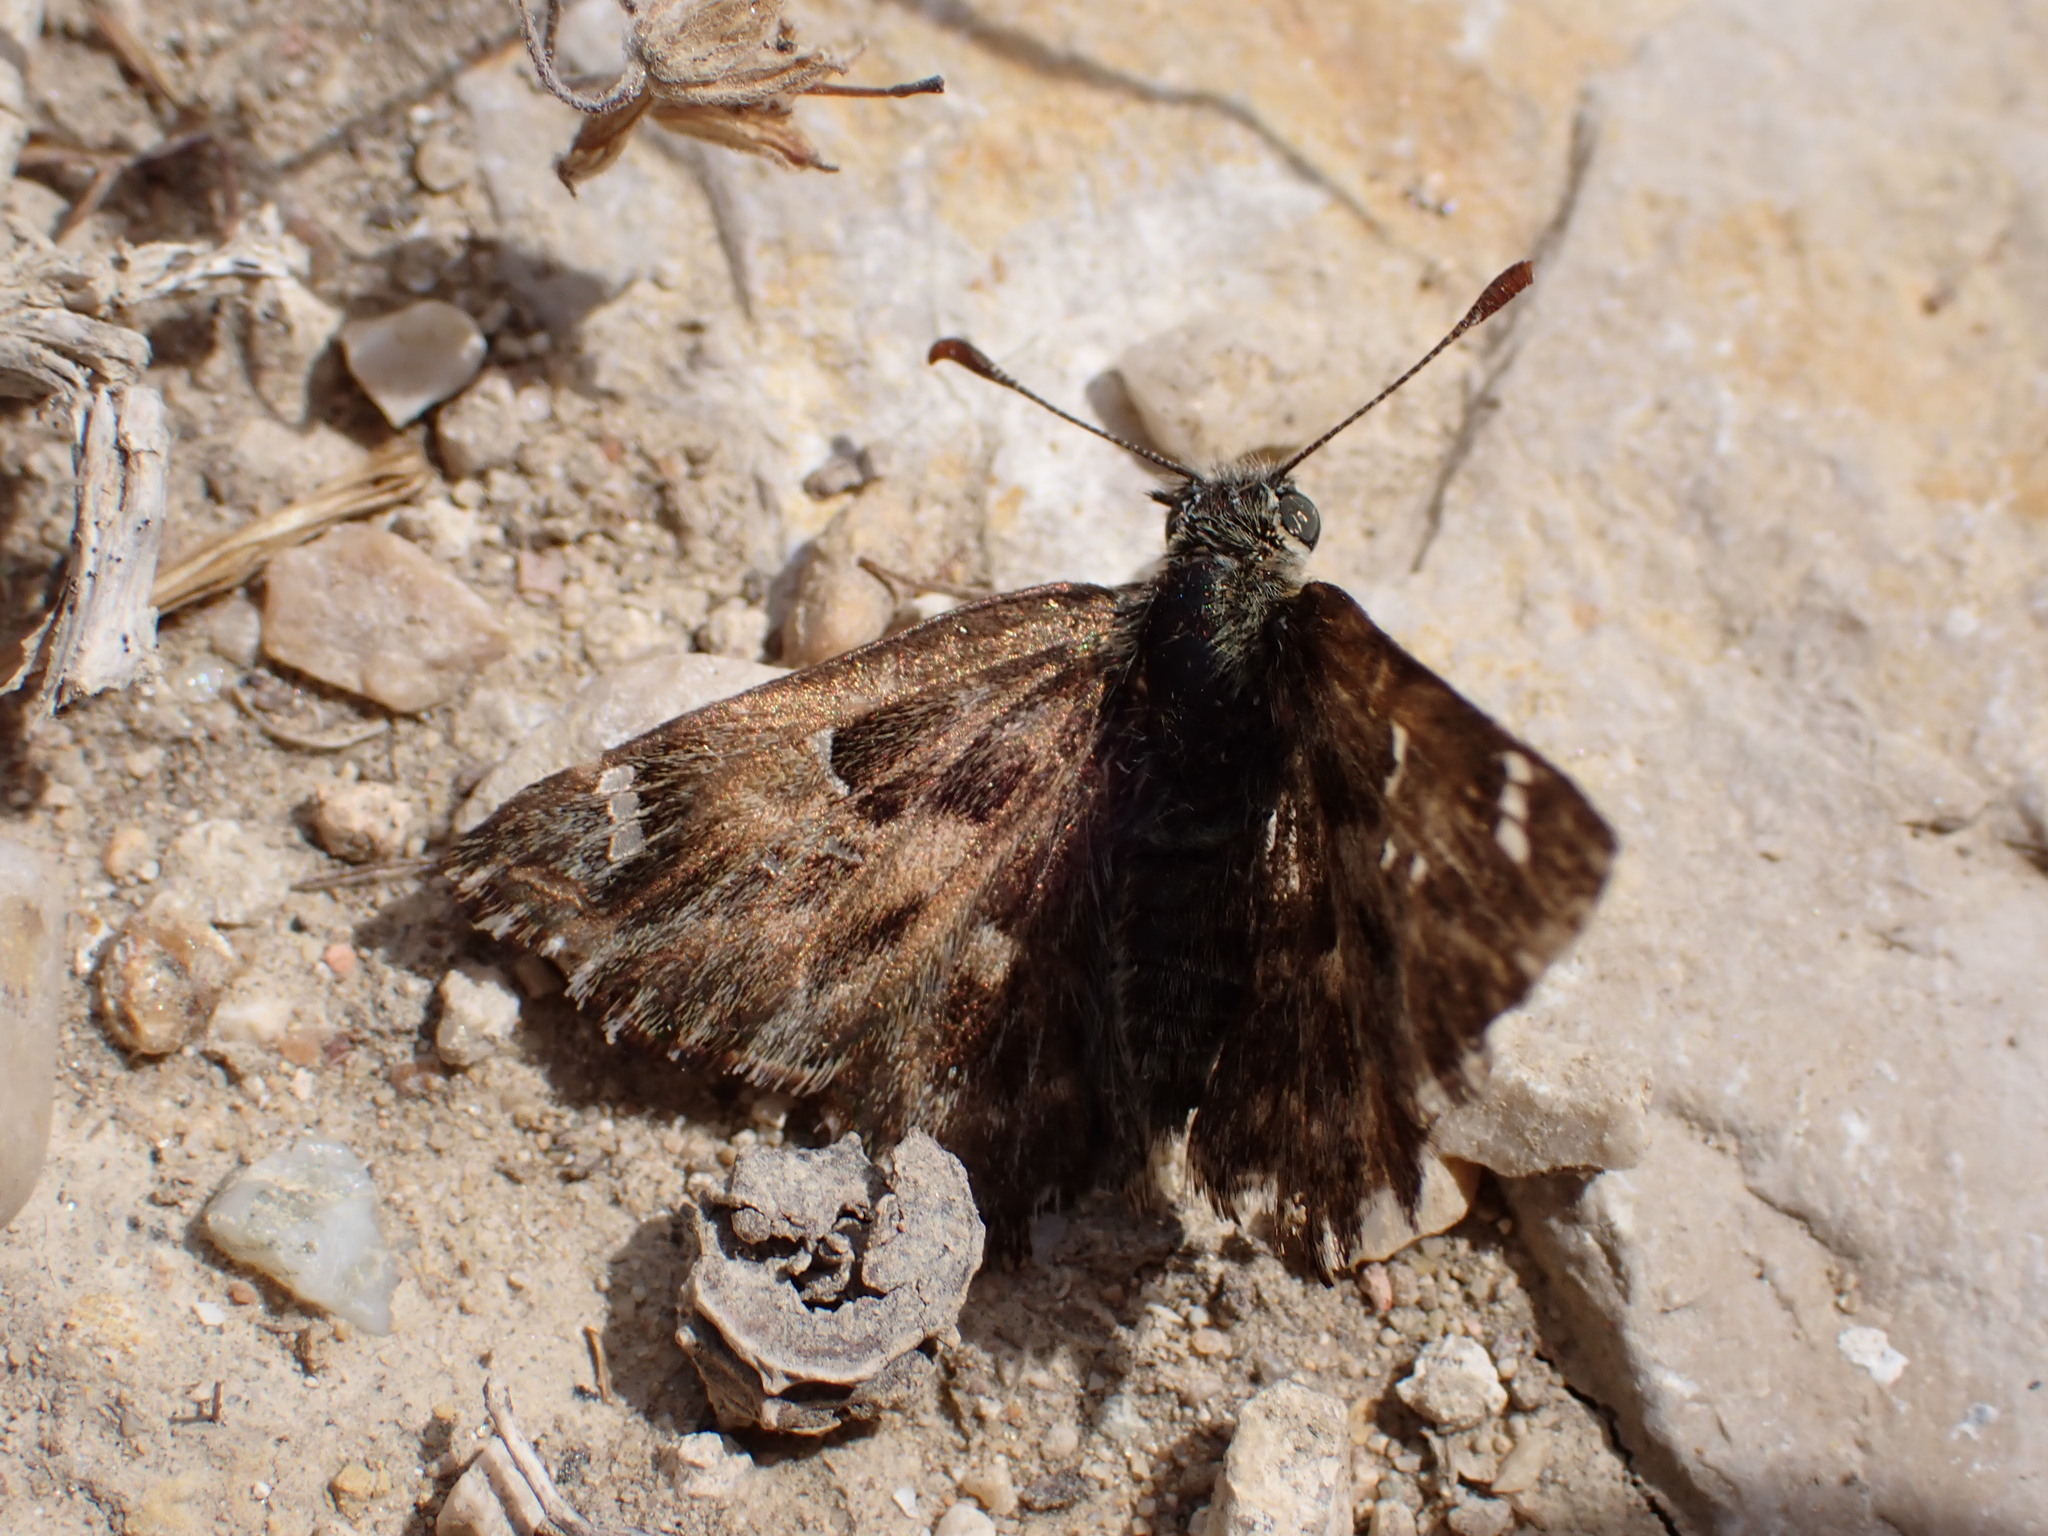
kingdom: Animalia
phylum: Arthropoda
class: Insecta
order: Lepidoptera
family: Hesperiidae
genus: Carcharodus
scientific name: Carcharodus alceae
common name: Mallow skipper
